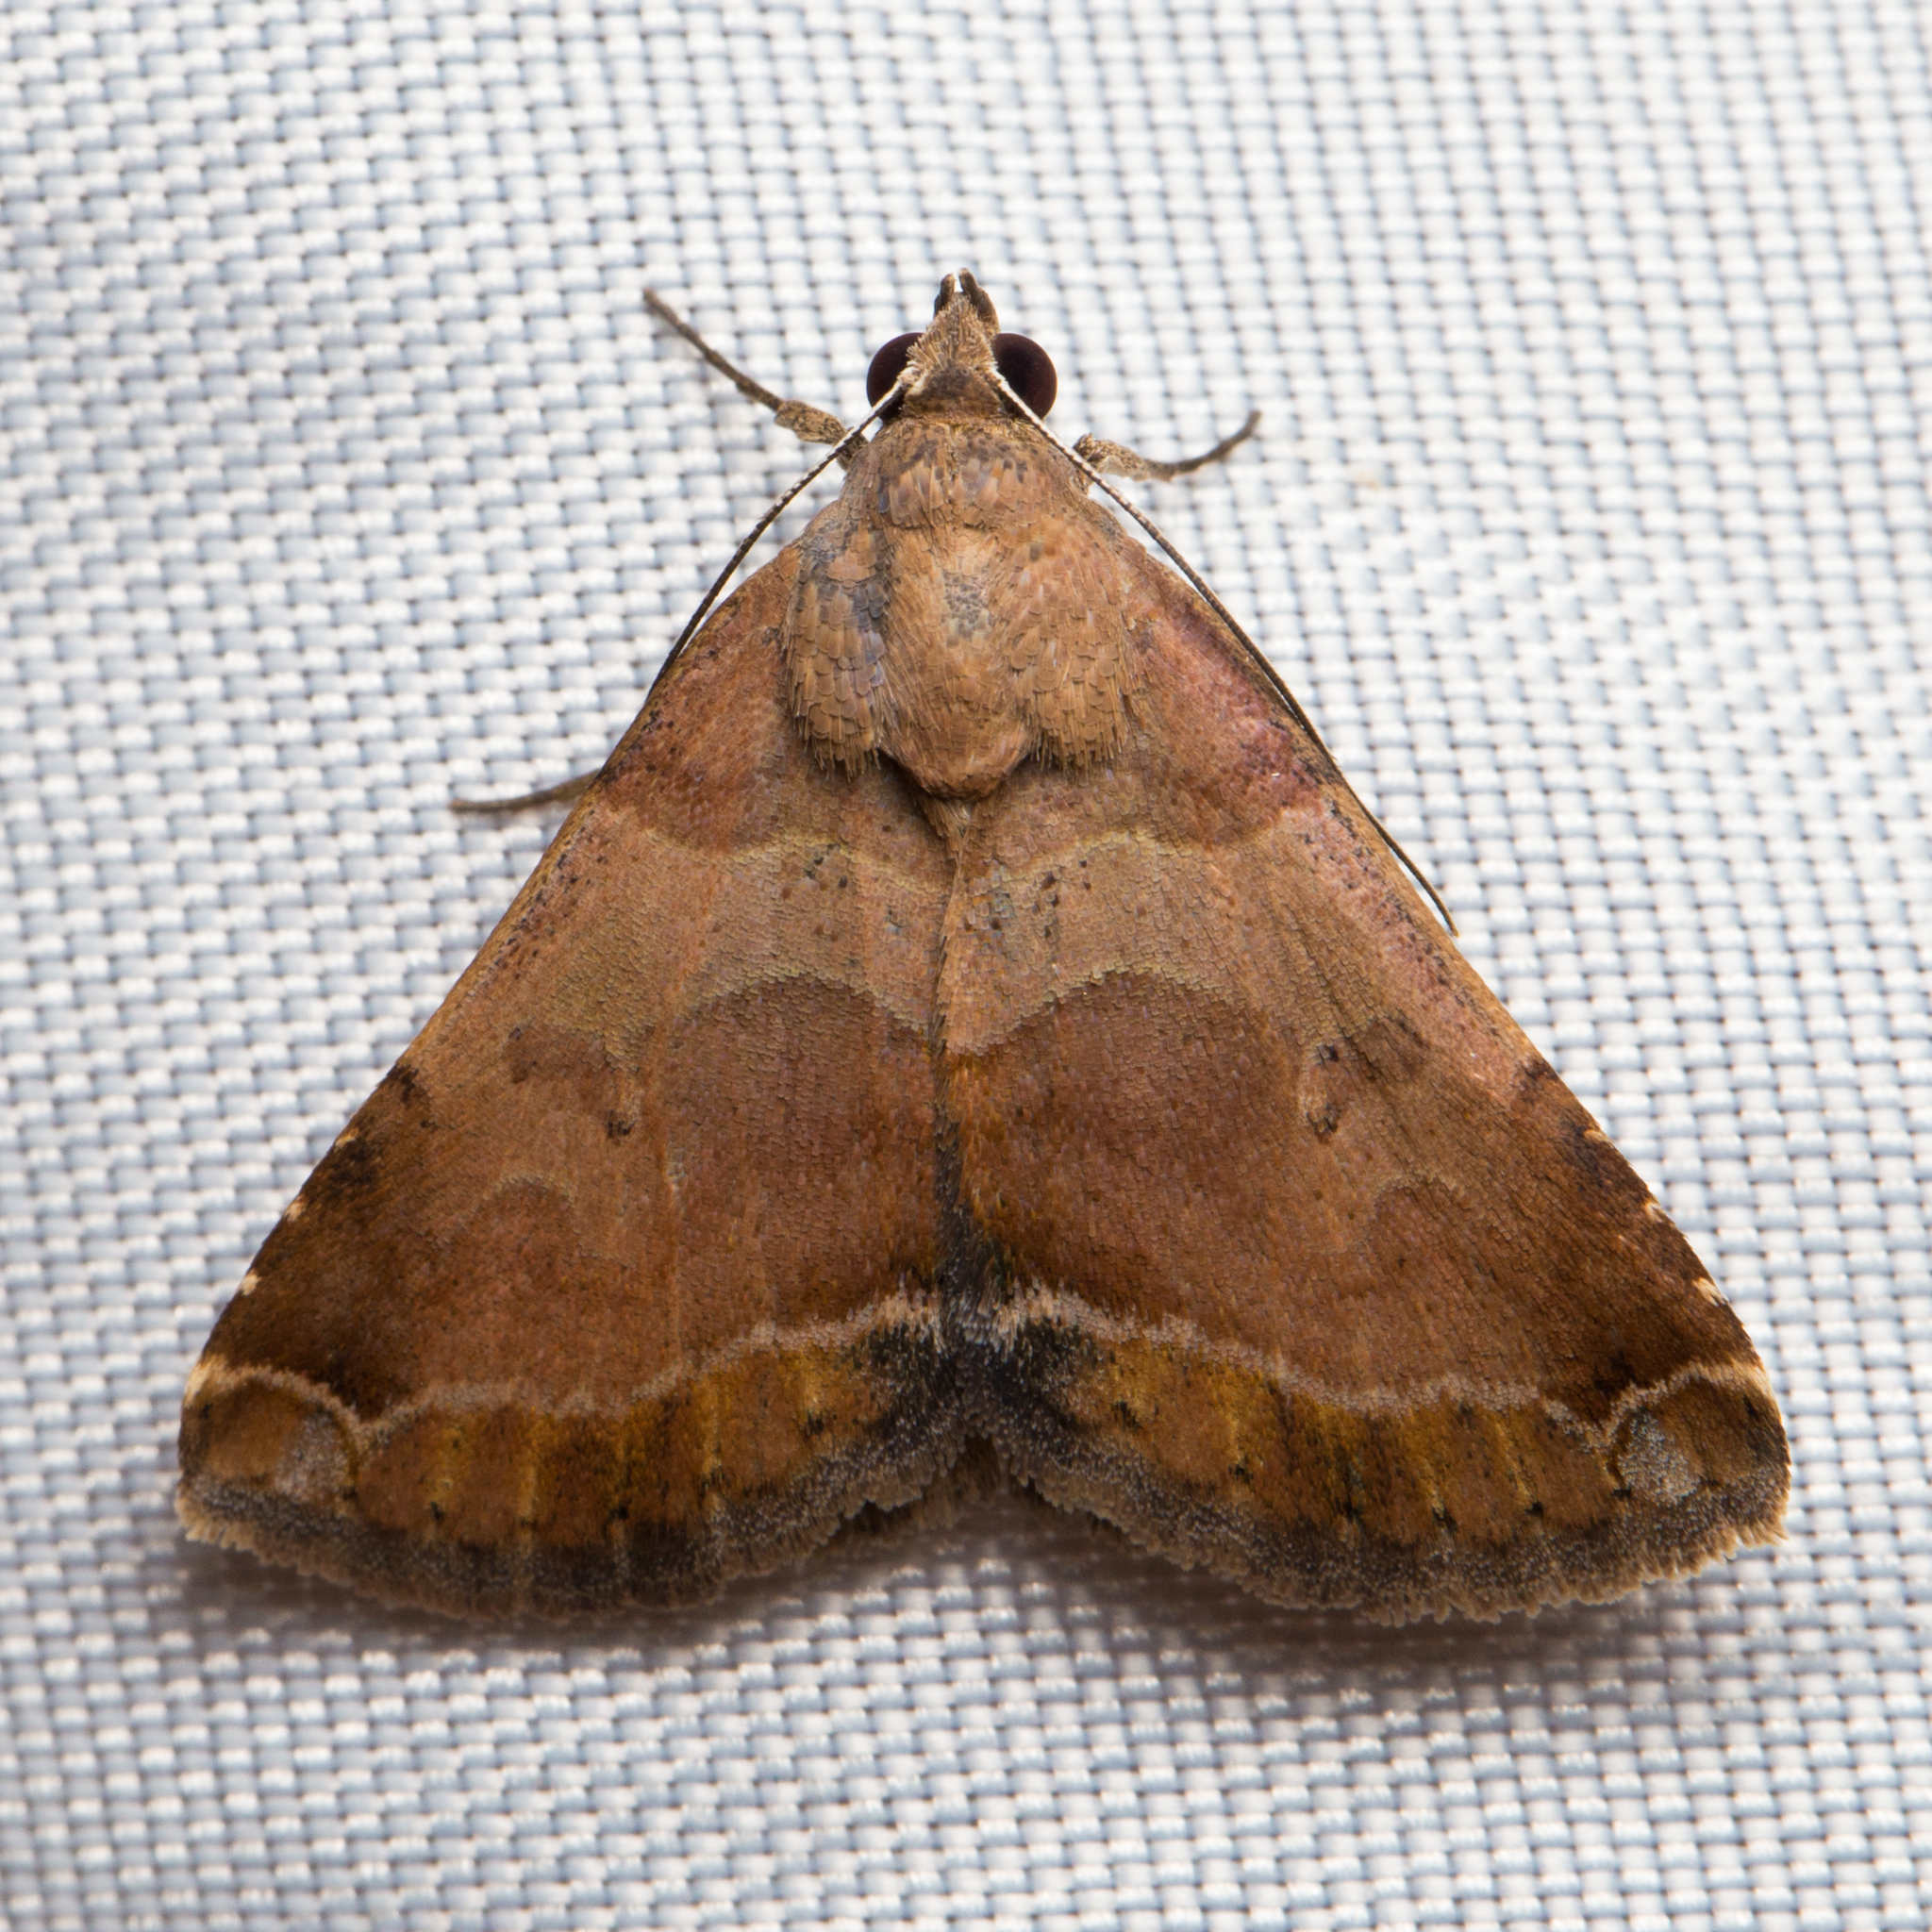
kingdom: Animalia
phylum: Arthropoda
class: Insecta
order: Lepidoptera
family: Erebidae
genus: Panula
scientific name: Panula inconstans
